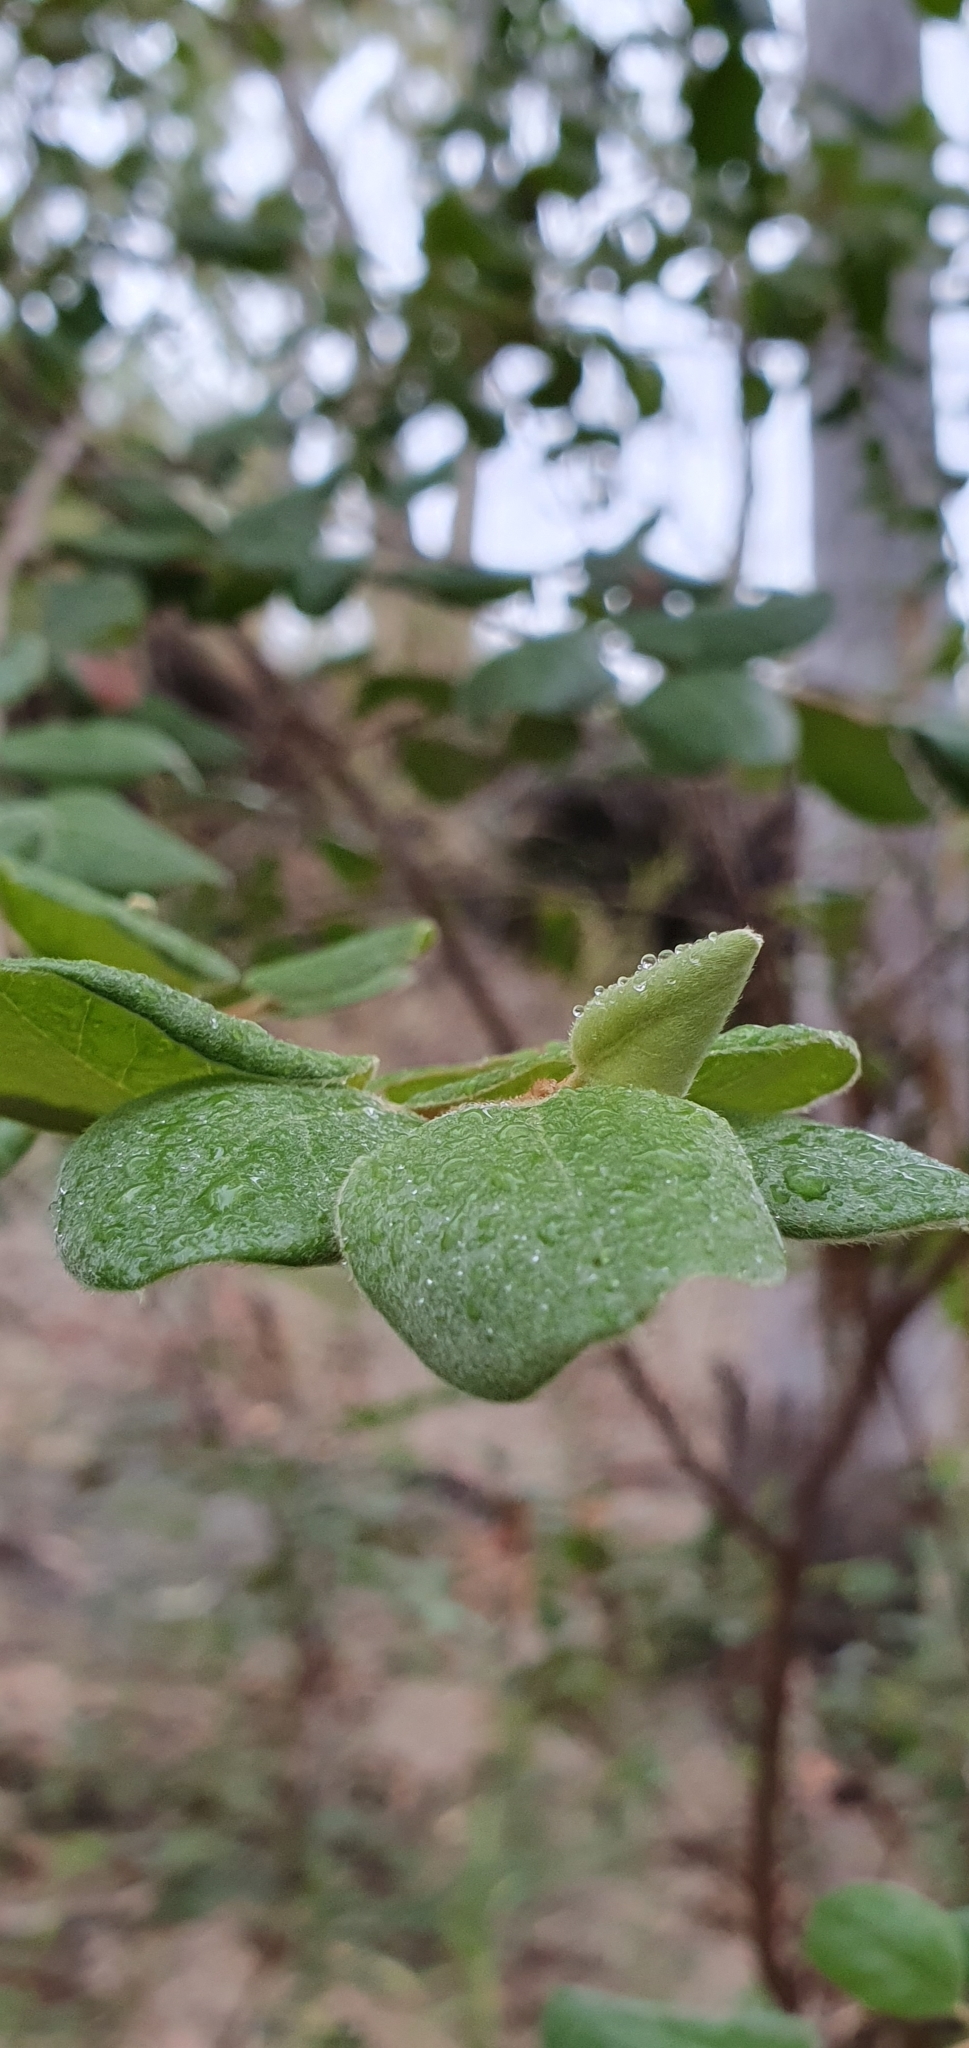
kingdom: Plantae
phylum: Tracheophyta
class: Magnoliopsida
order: Malpighiales
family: Picrodendraceae
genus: Petalostigma
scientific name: Petalostigma pubescens
